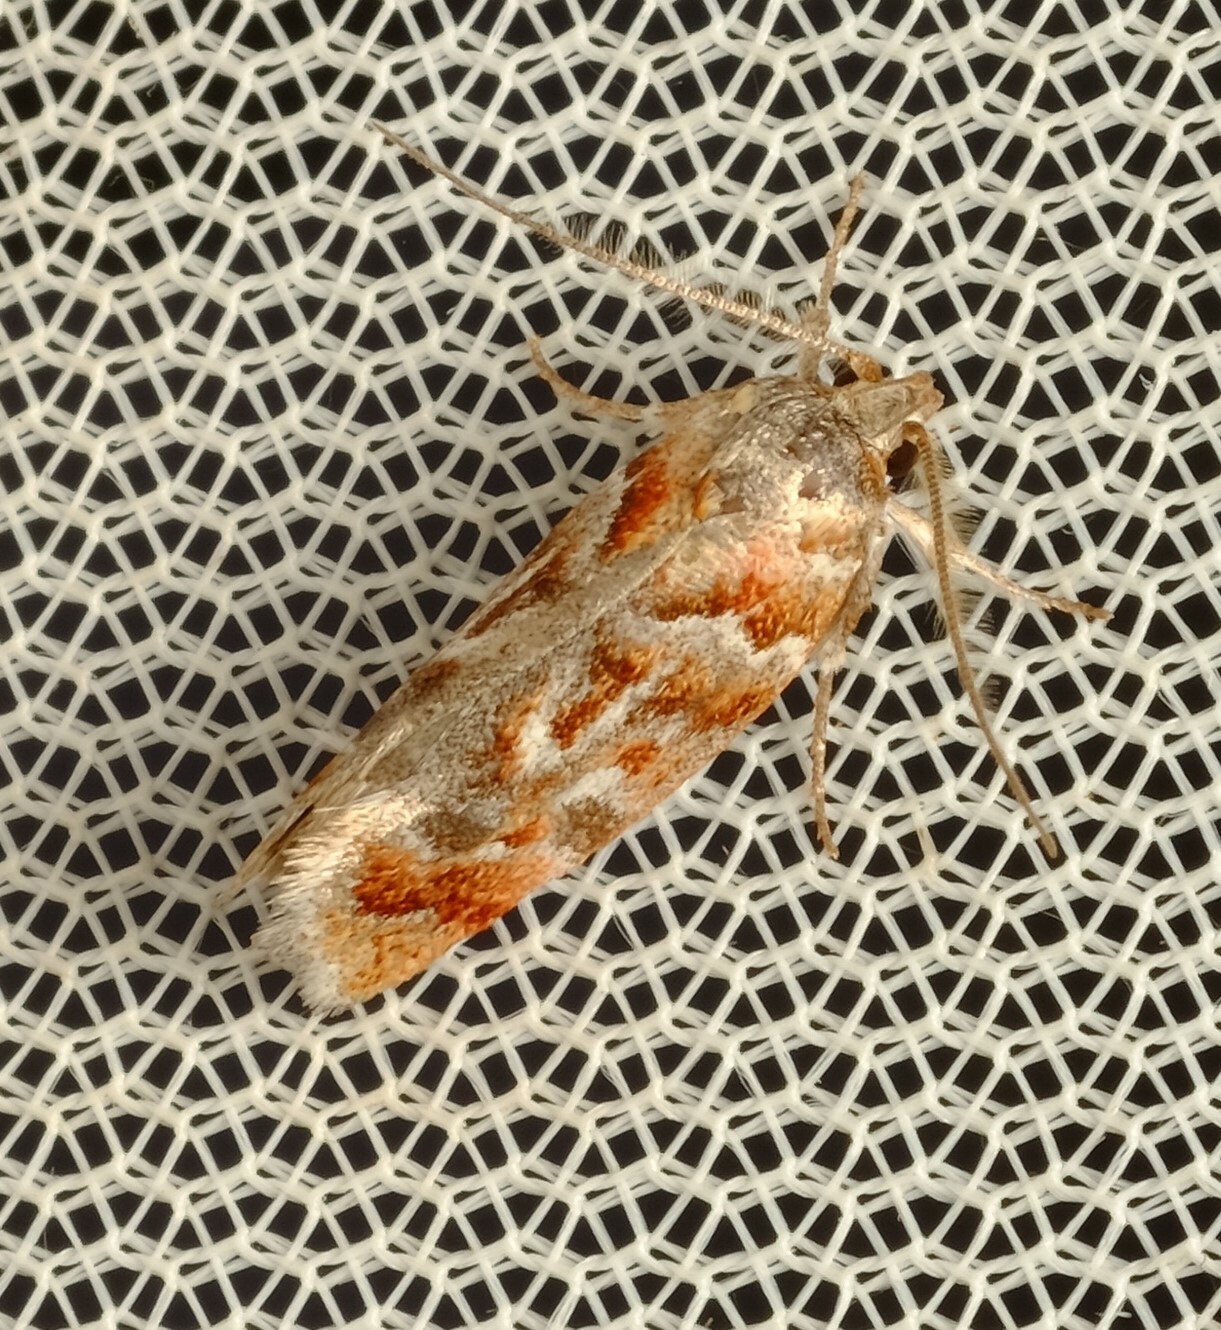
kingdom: Animalia
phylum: Arthropoda
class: Insecta
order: Lepidoptera
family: Oecophoridae
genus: Acmotoma
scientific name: Acmotoma magniferella
